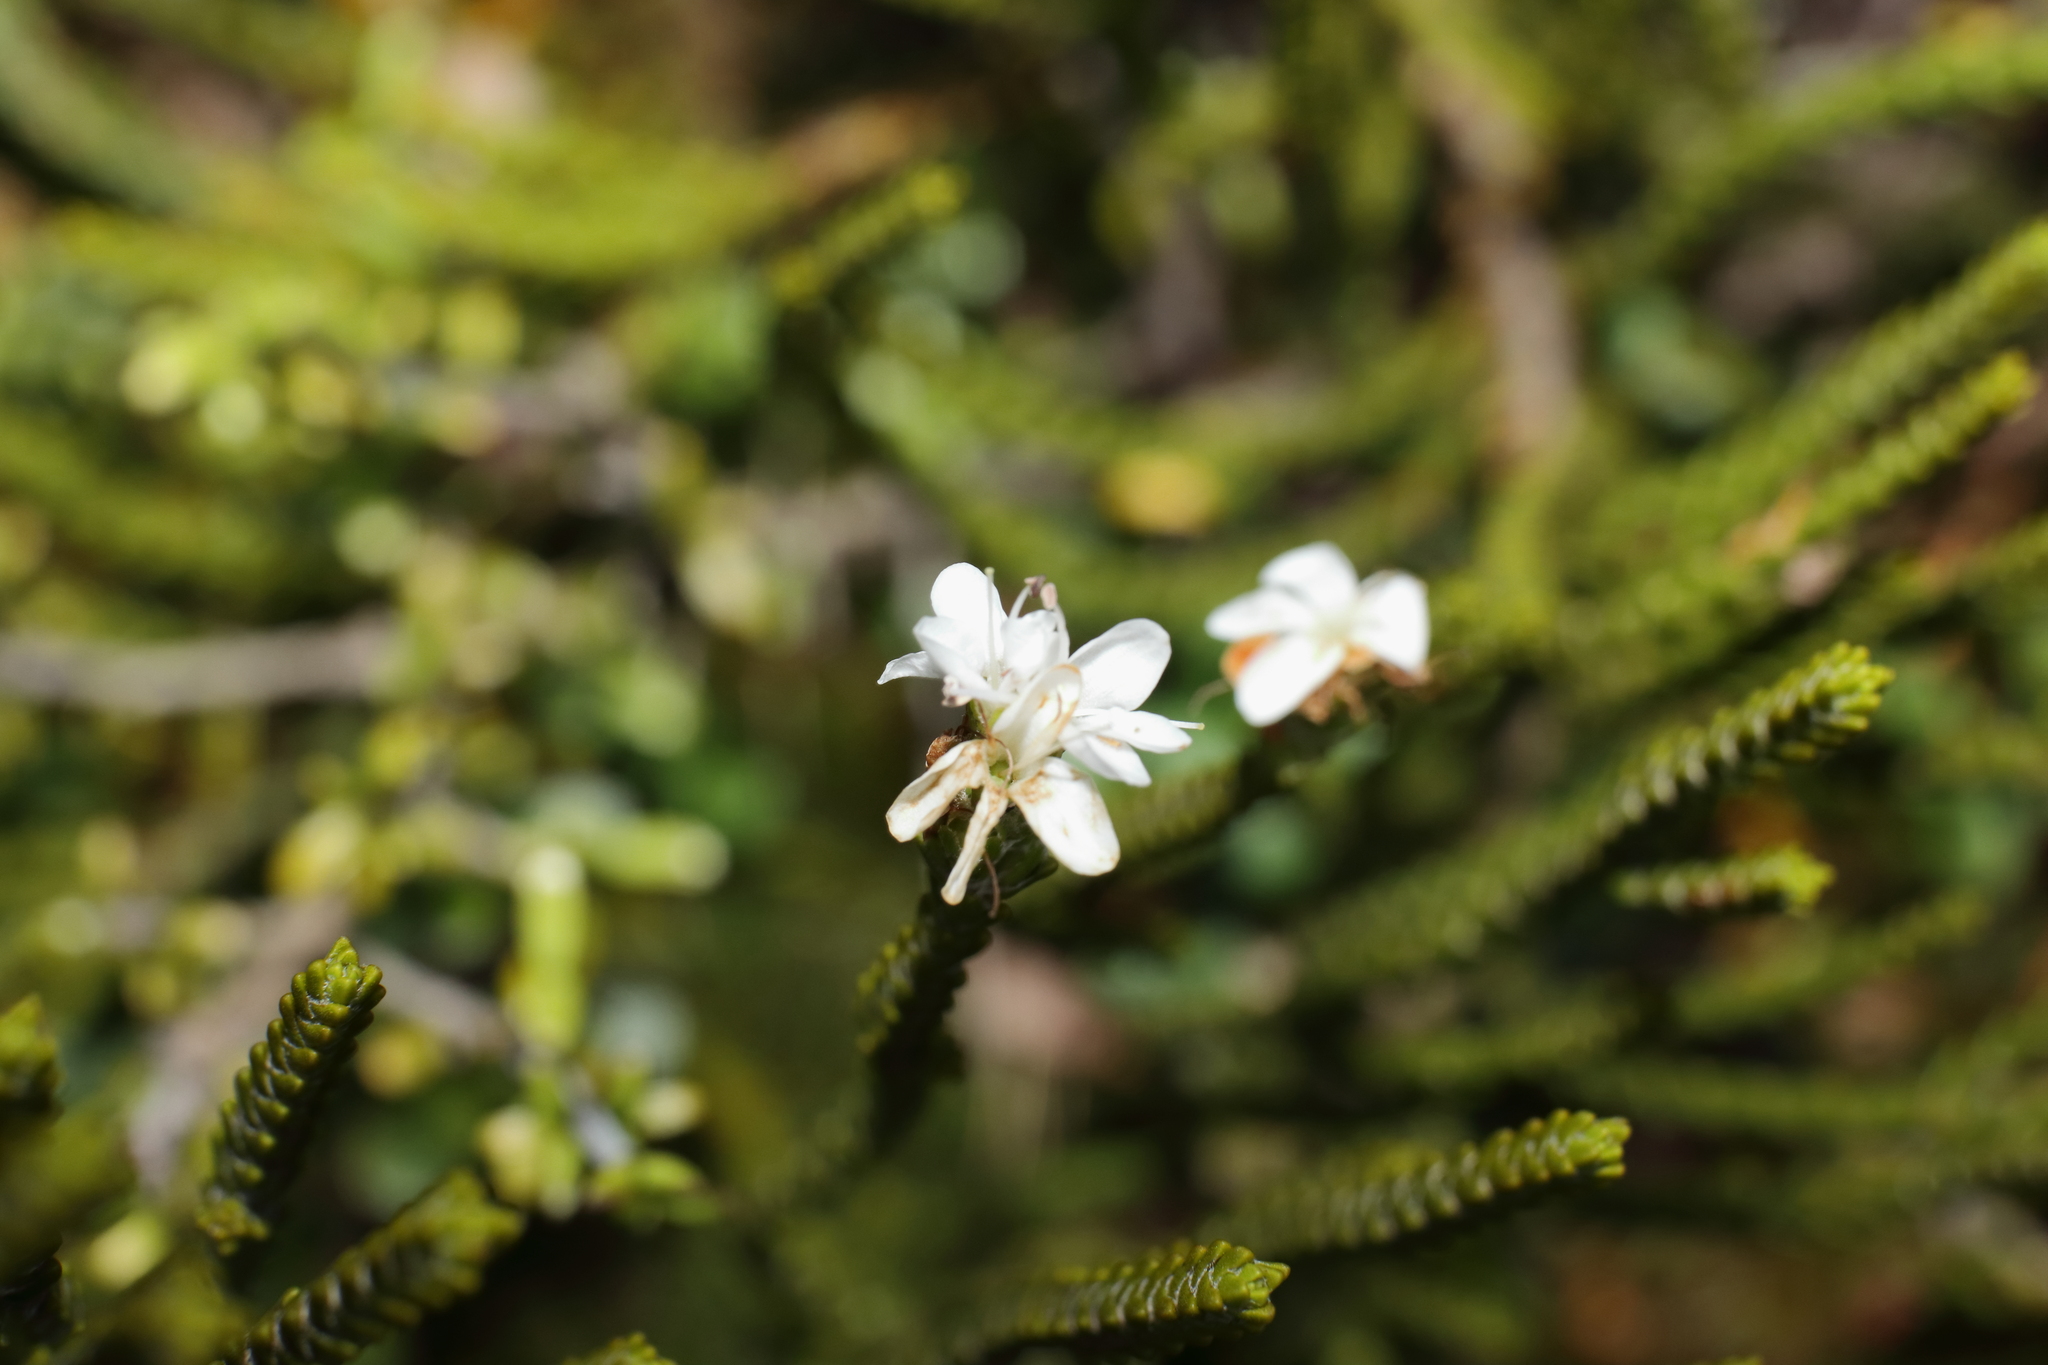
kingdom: Plantae
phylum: Tracheophyta
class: Magnoliopsida
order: Lamiales
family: Plantaginaceae
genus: Veronica
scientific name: Veronica tetragona
